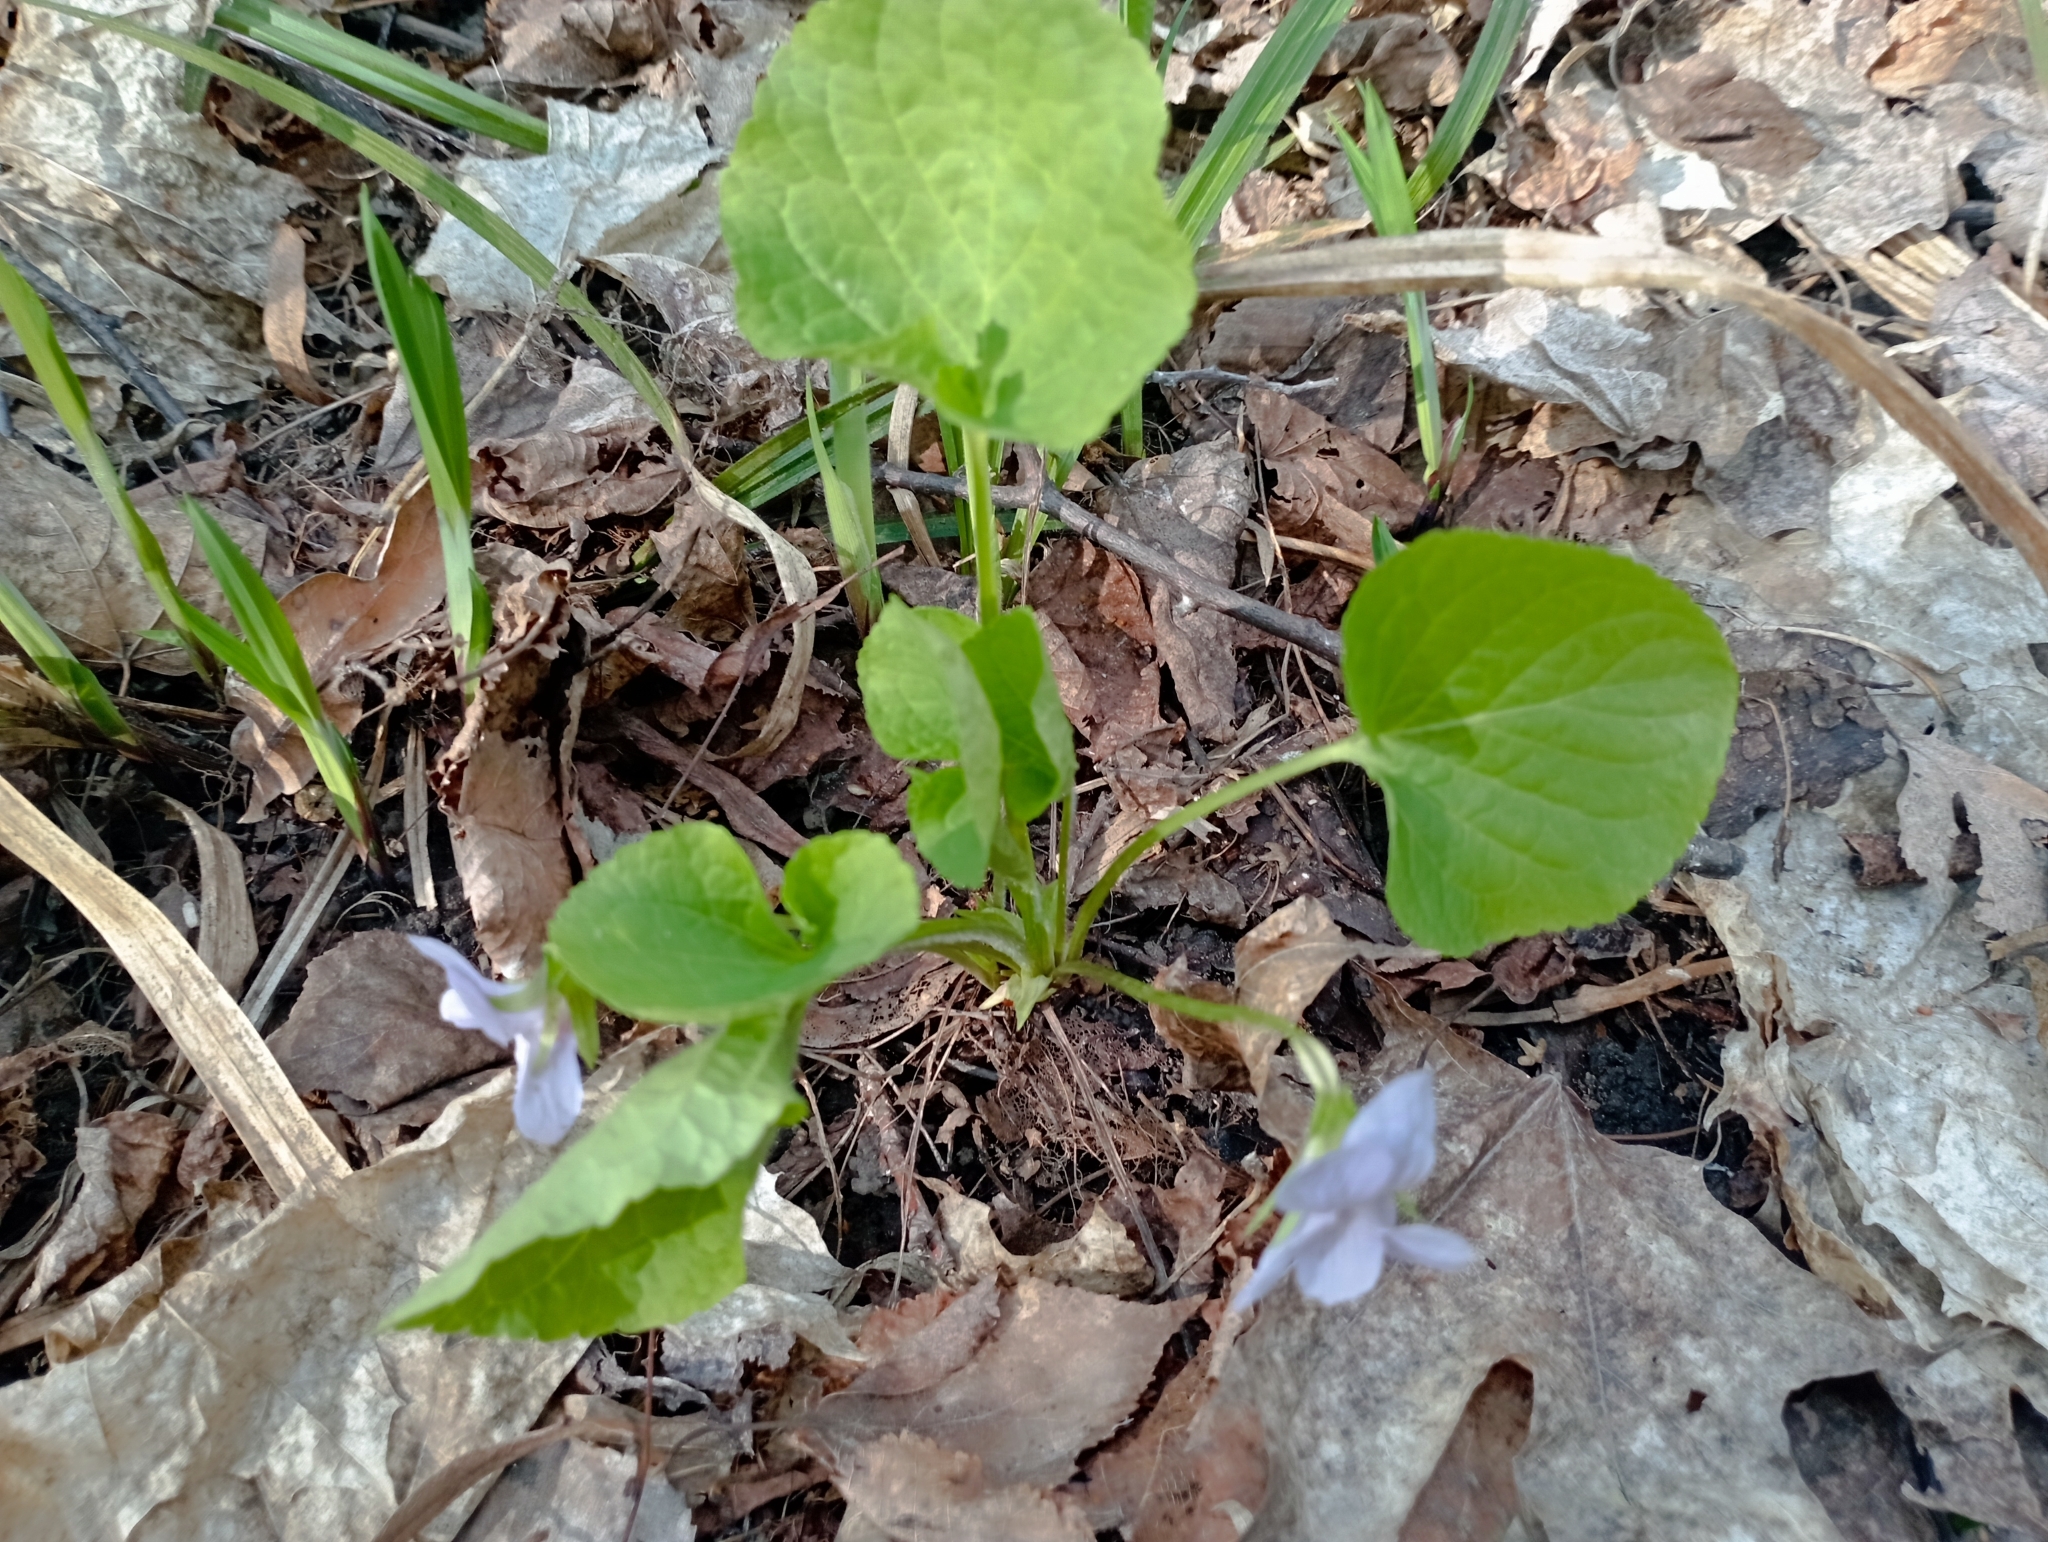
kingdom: Plantae
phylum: Tracheophyta
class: Magnoliopsida
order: Malpighiales
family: Violaceae
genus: Viola
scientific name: Viola mirabilis
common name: Wonder violet
